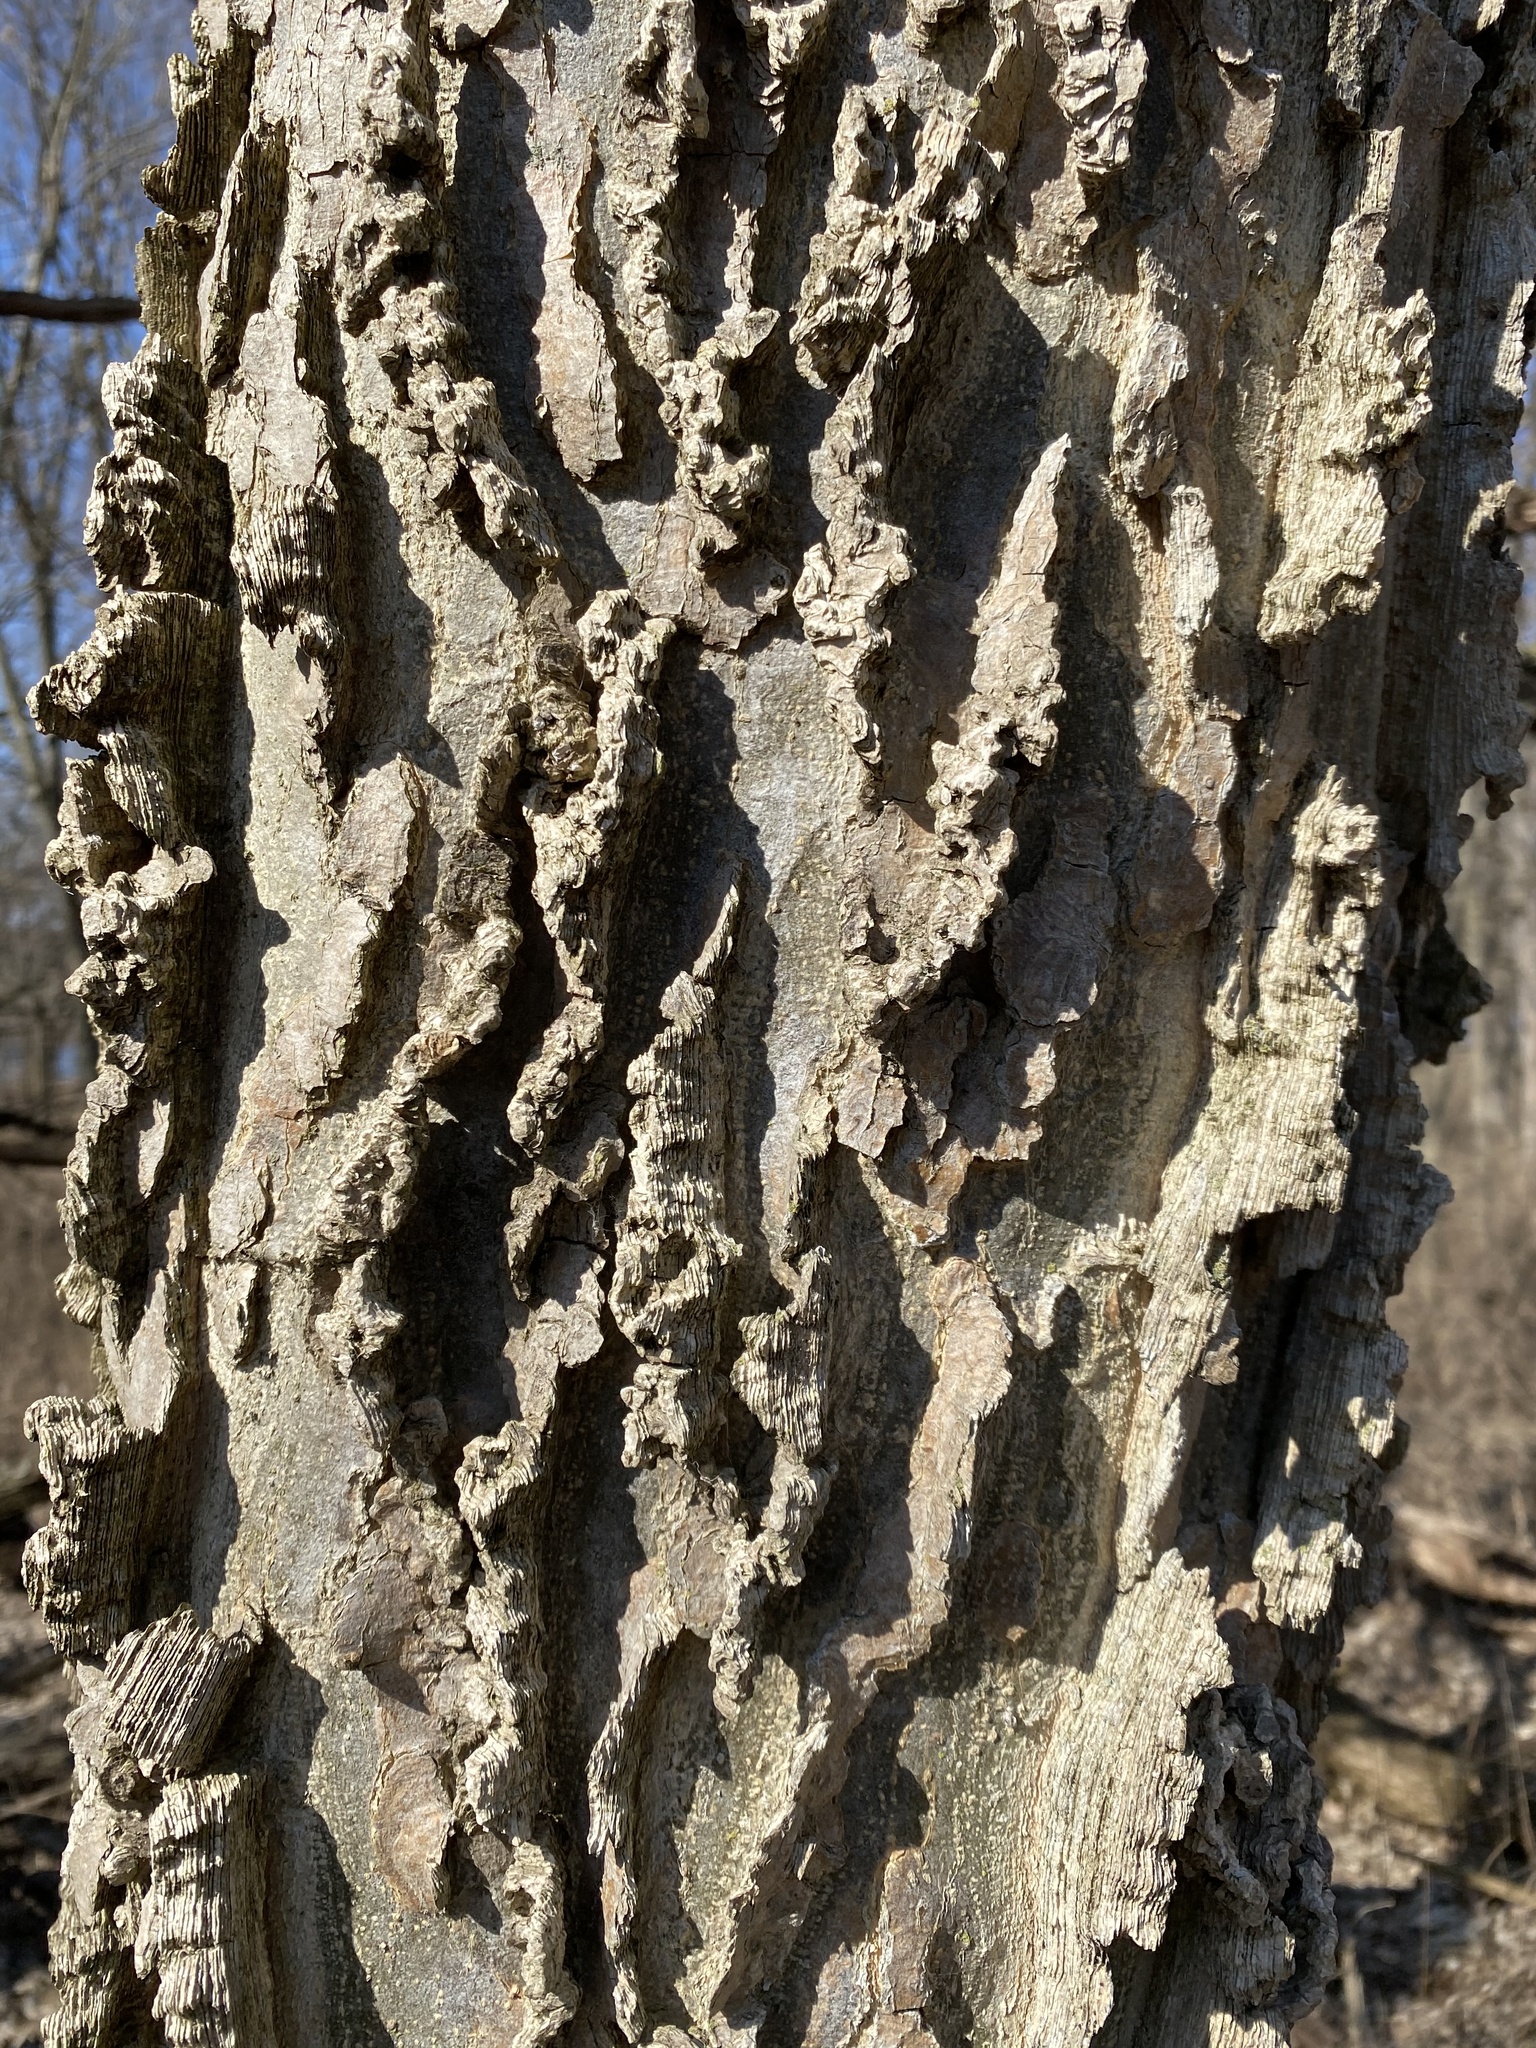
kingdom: Plantae
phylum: Tracheophyta
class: Magnoliopsida
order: Rosales
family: Cannabaceae
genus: Celtis
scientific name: Celtis occidentalis
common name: Common hackberry
